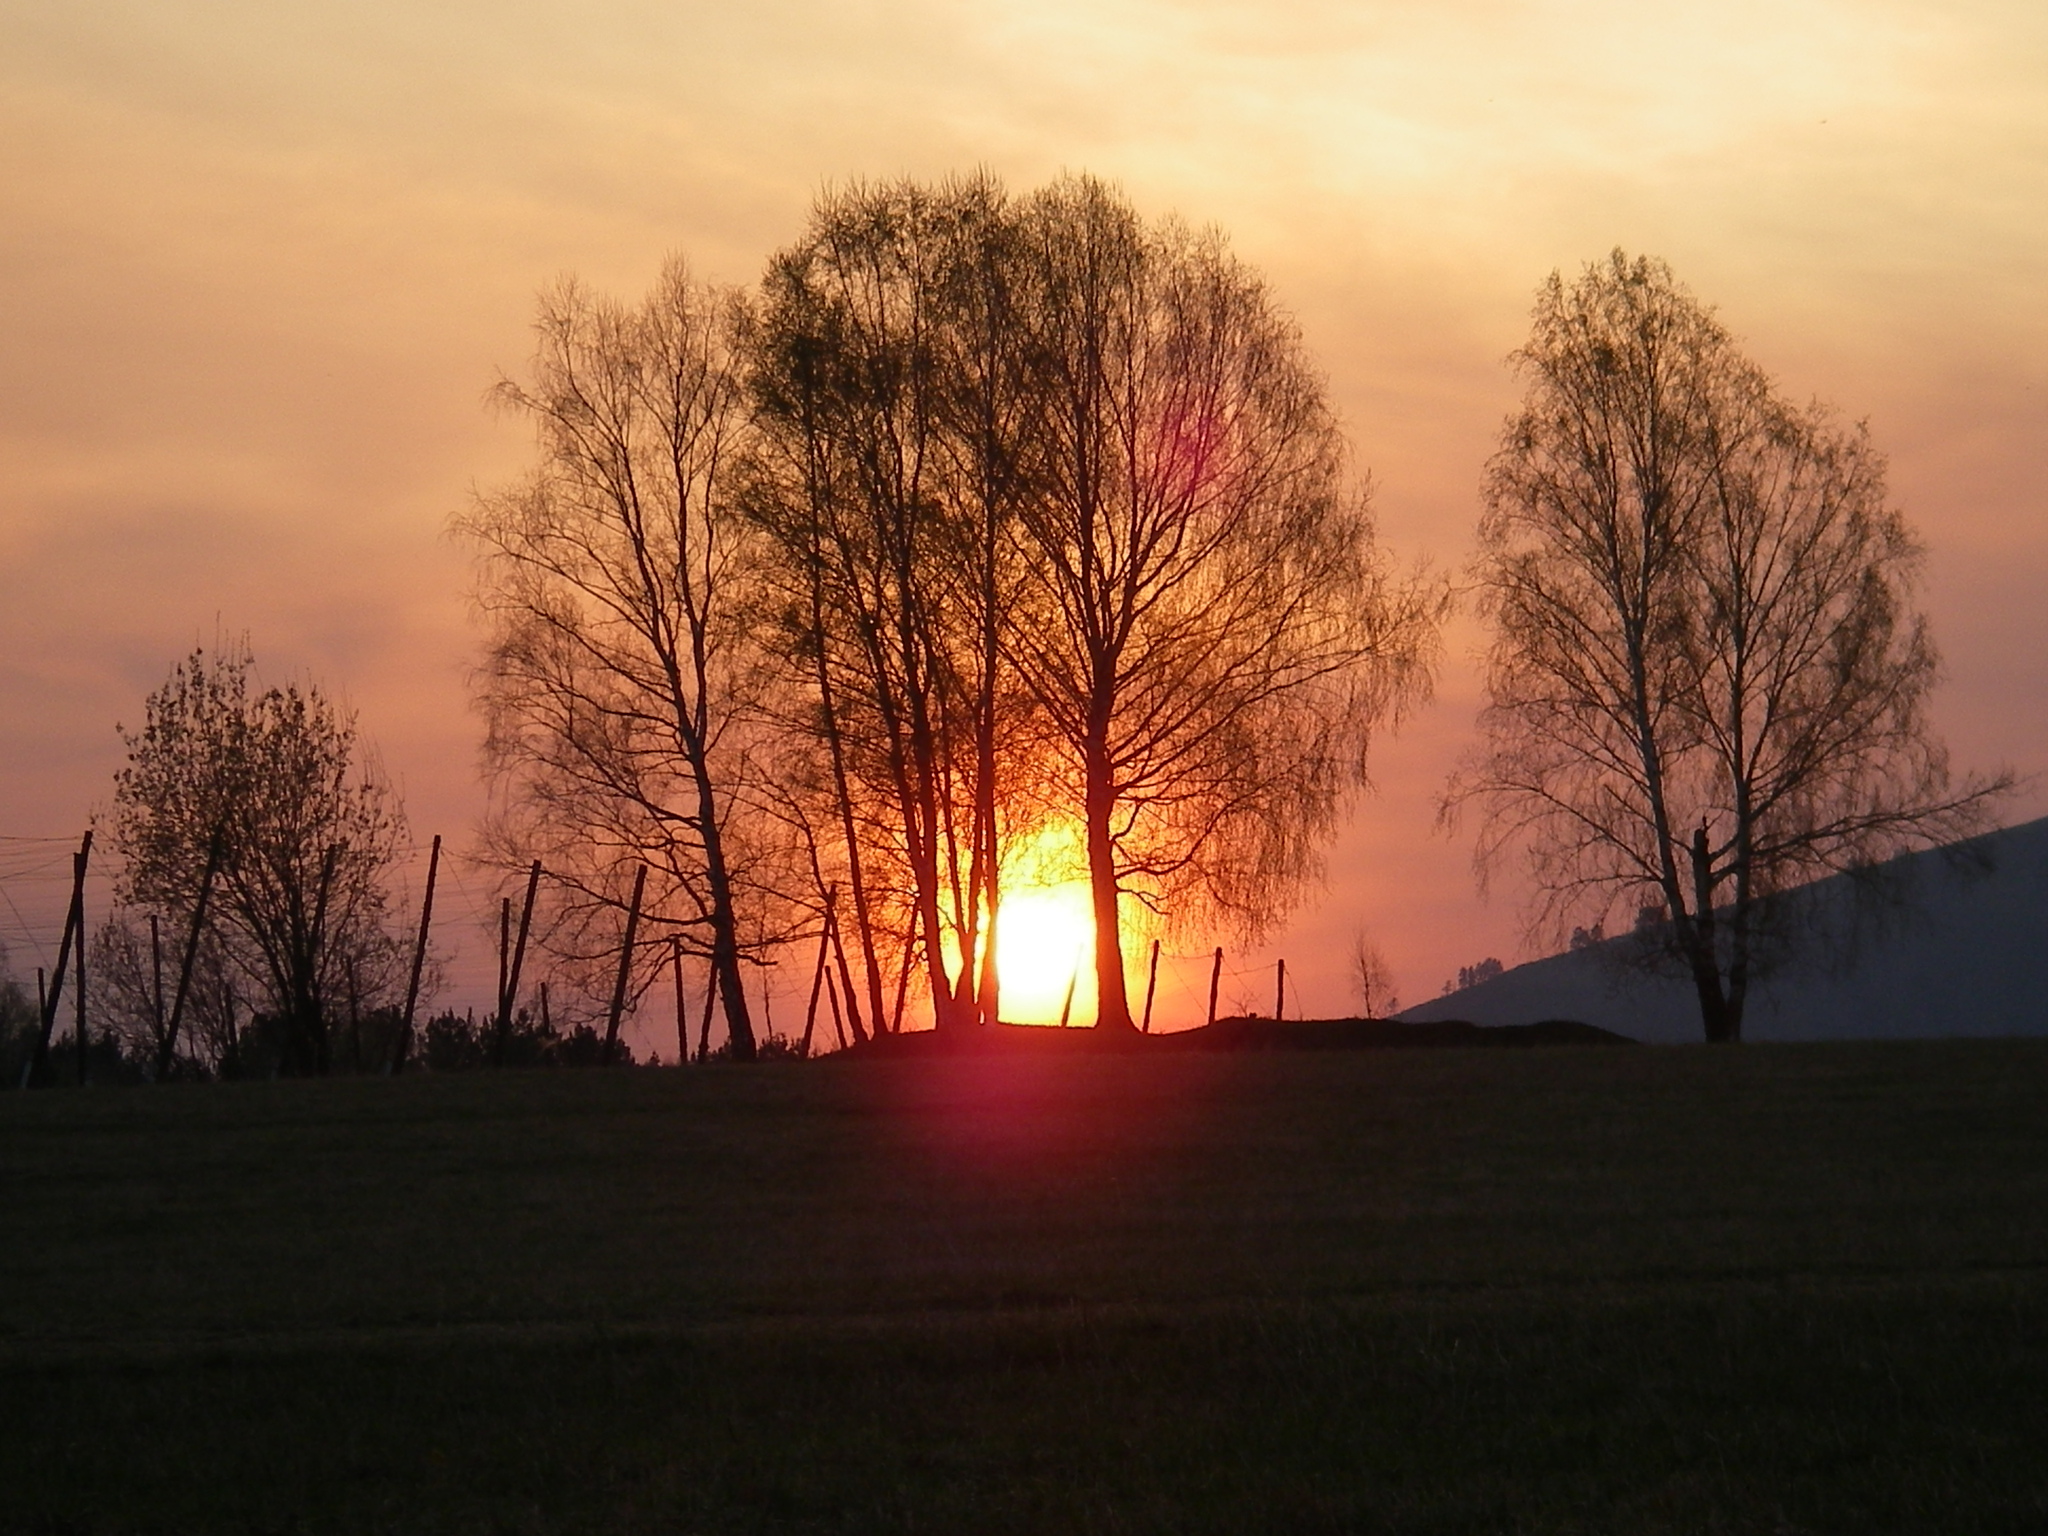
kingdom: Plantae
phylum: Tracheophyta
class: Magnoliopsida
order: Fagales
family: Betulaceae
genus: Betula
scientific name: Betula pendula
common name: Silver birch
